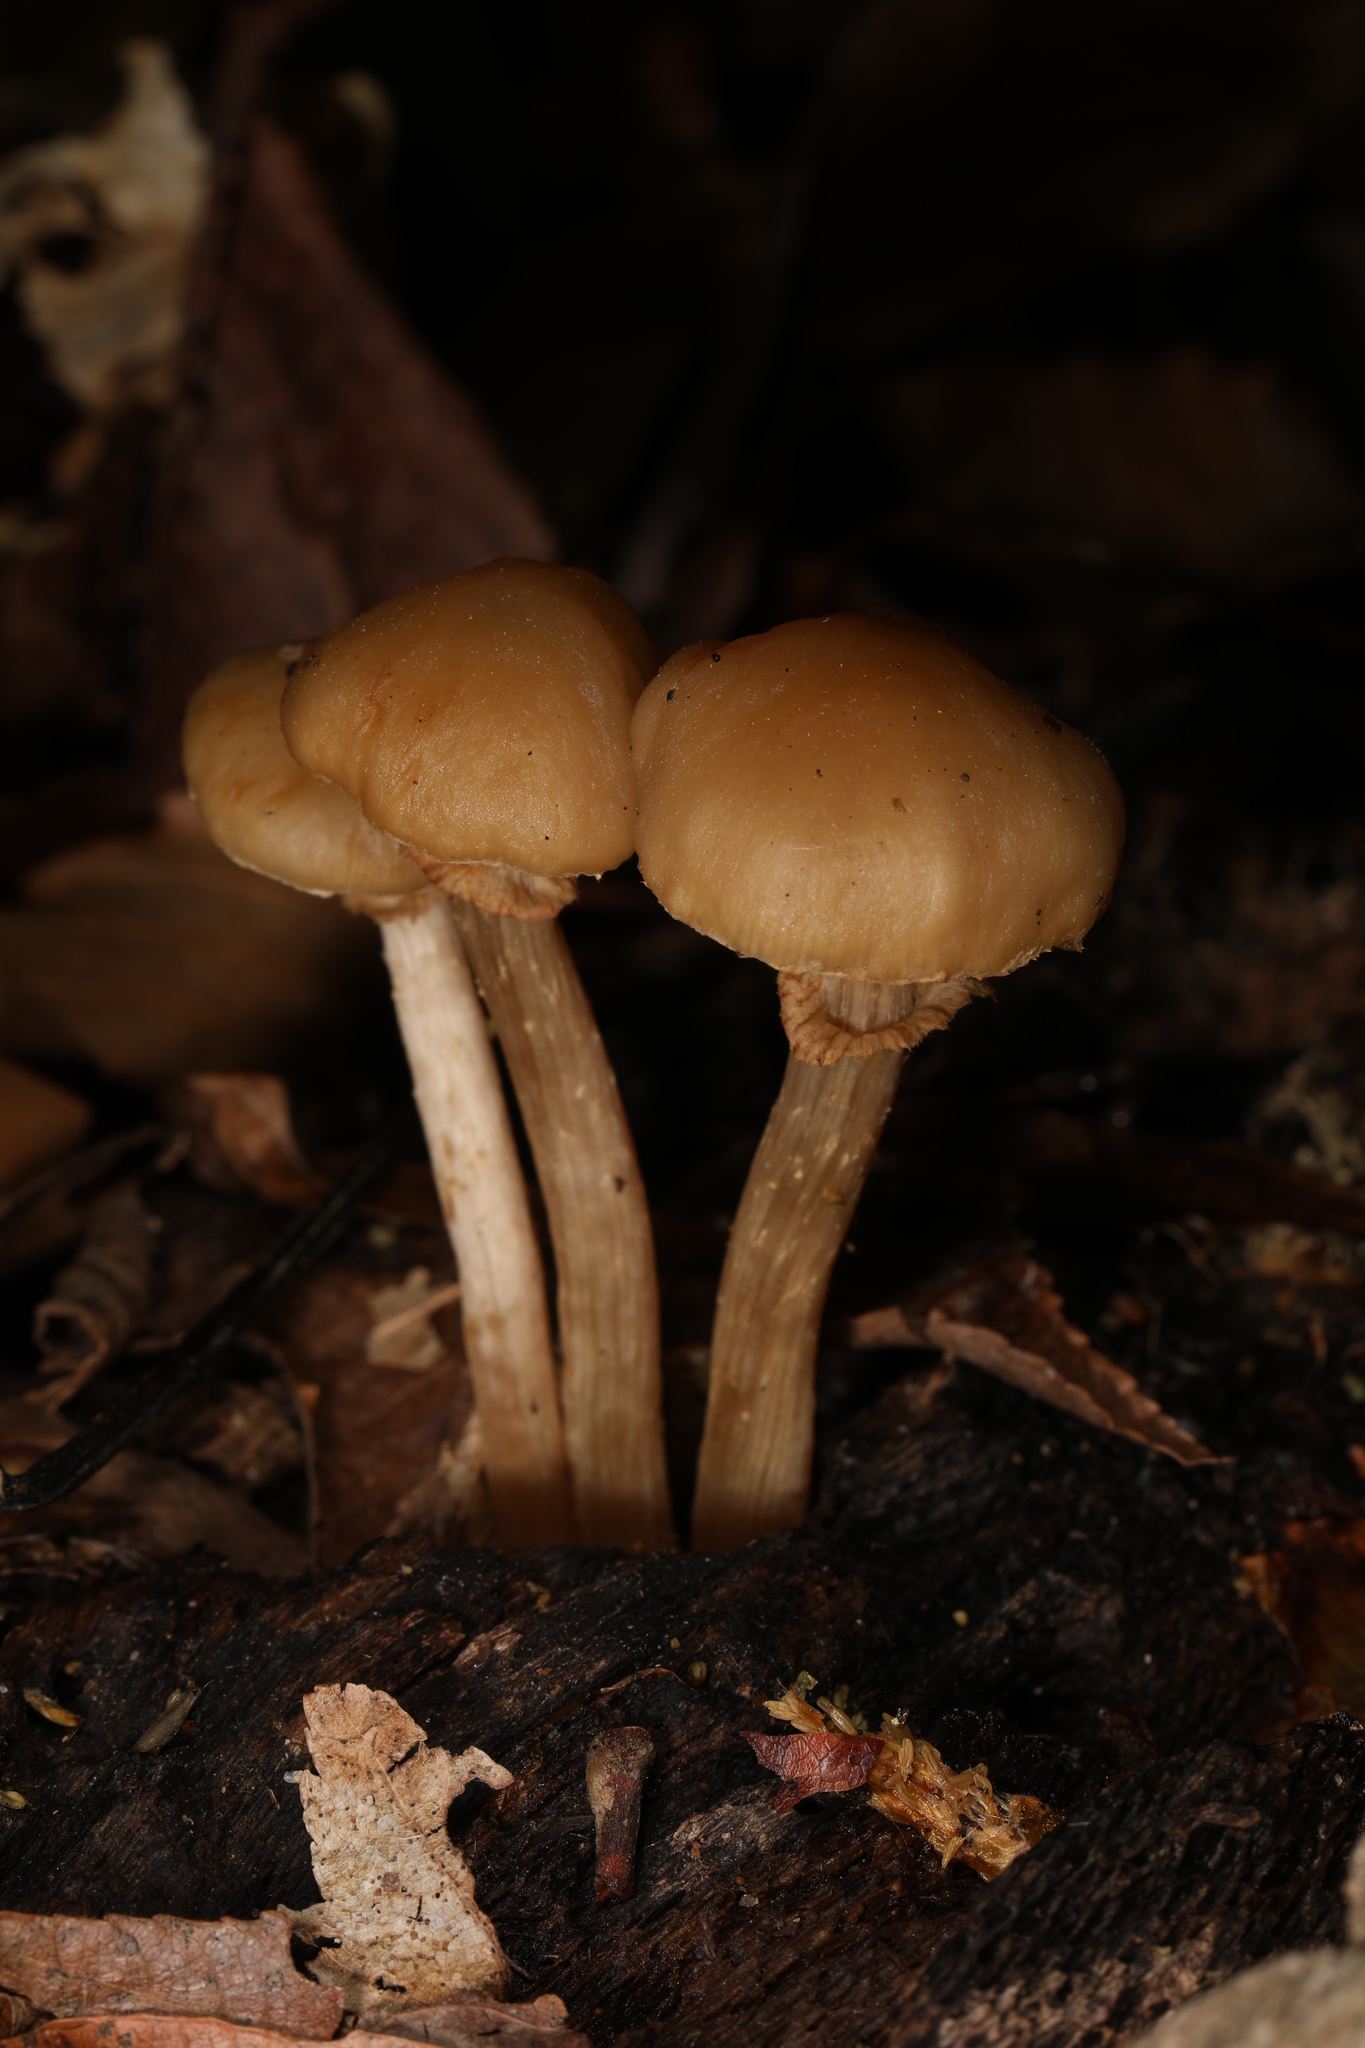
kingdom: Fungi
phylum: Basidiomycota
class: Agaricomycetes
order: Agaricales
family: Strophariaceae
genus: Kuehneromyces
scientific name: Kuehneromyces marginellus
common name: Sheathed woodtuft
